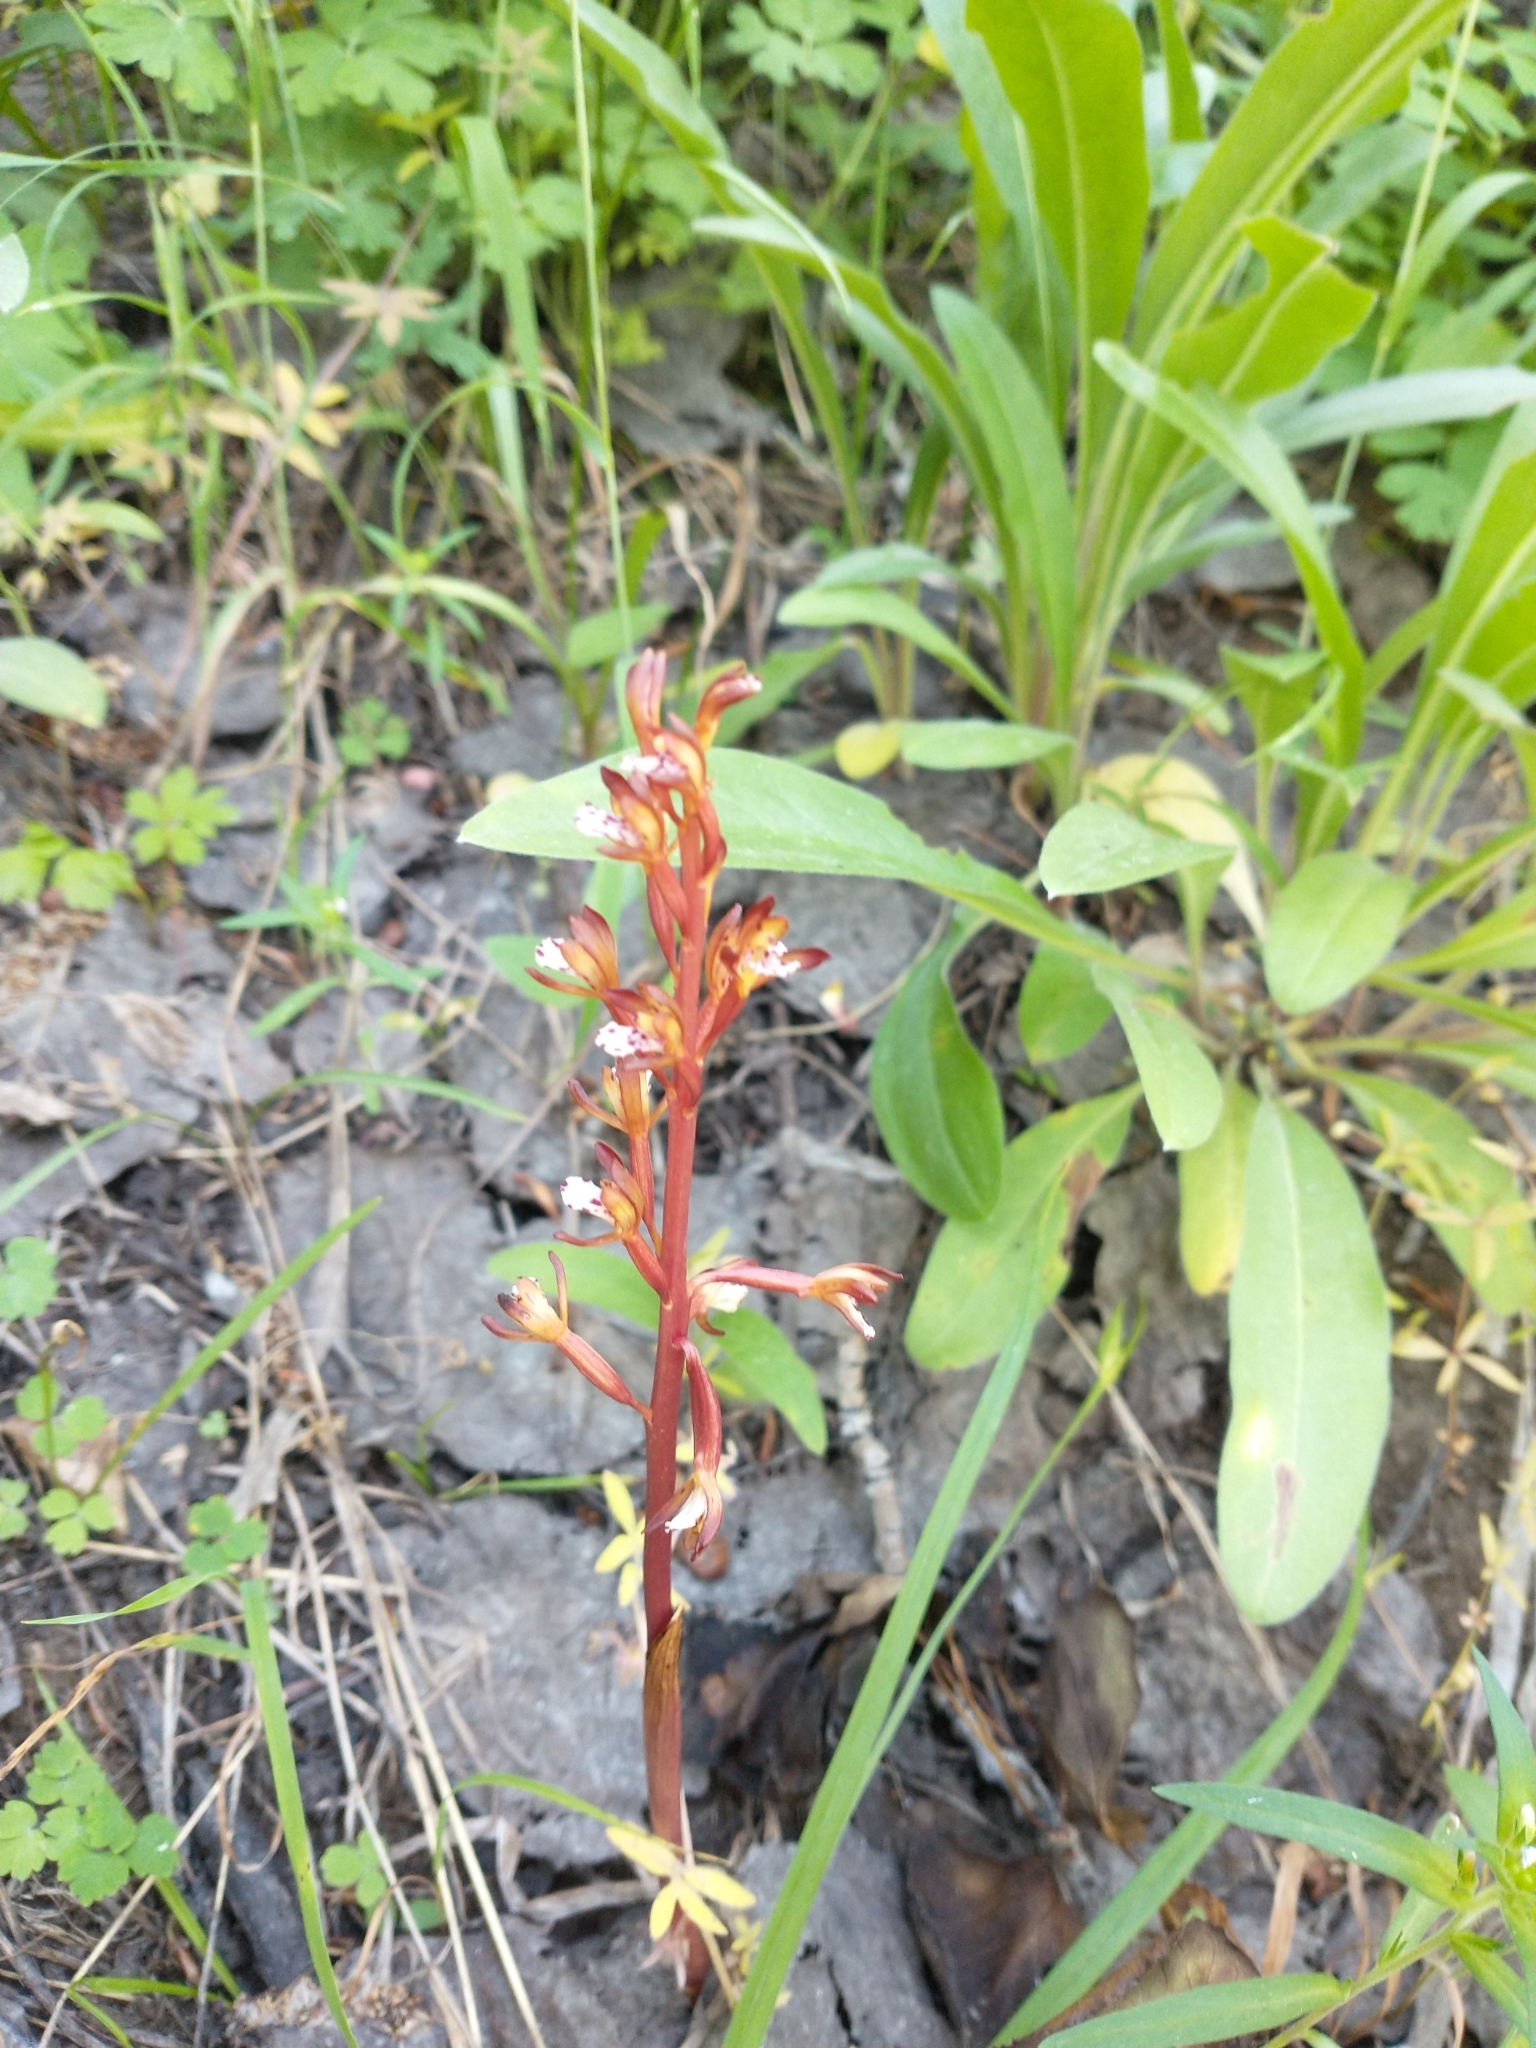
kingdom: Plantae
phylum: Tracheophyta
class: Liliopsida
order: Asparagales
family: Orchidaceae
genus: Corallorhiza
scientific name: Corallorhiza maculata
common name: Spotted coralroot
